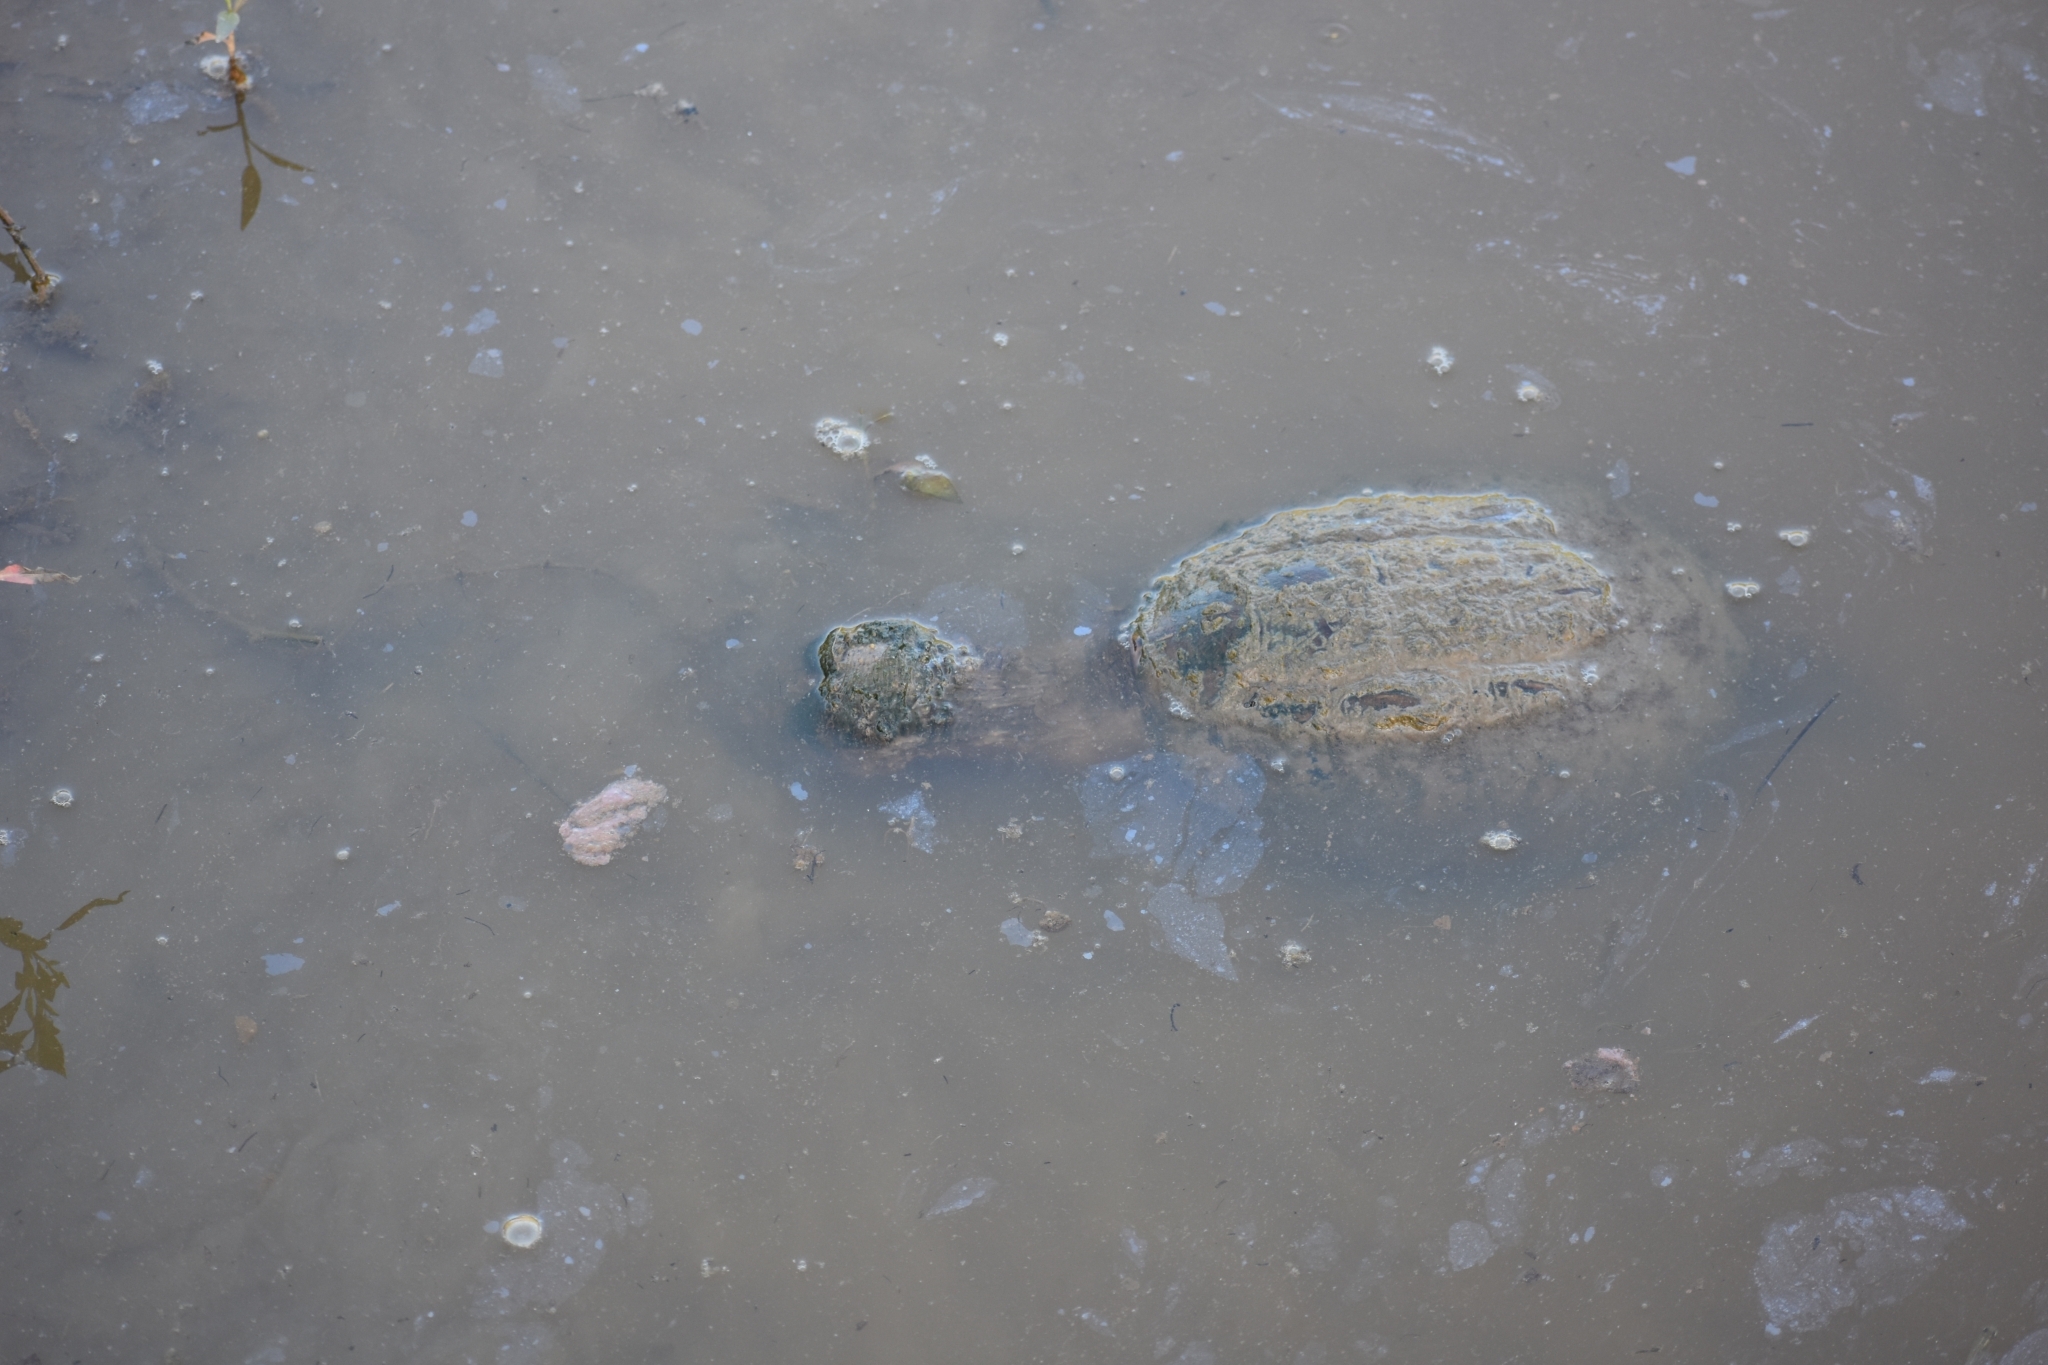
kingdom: Animalia
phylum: Chordata
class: Testudines
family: Chelydridae
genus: Chelydra
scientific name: Chelydra serpentina
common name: Common snapping turtle
